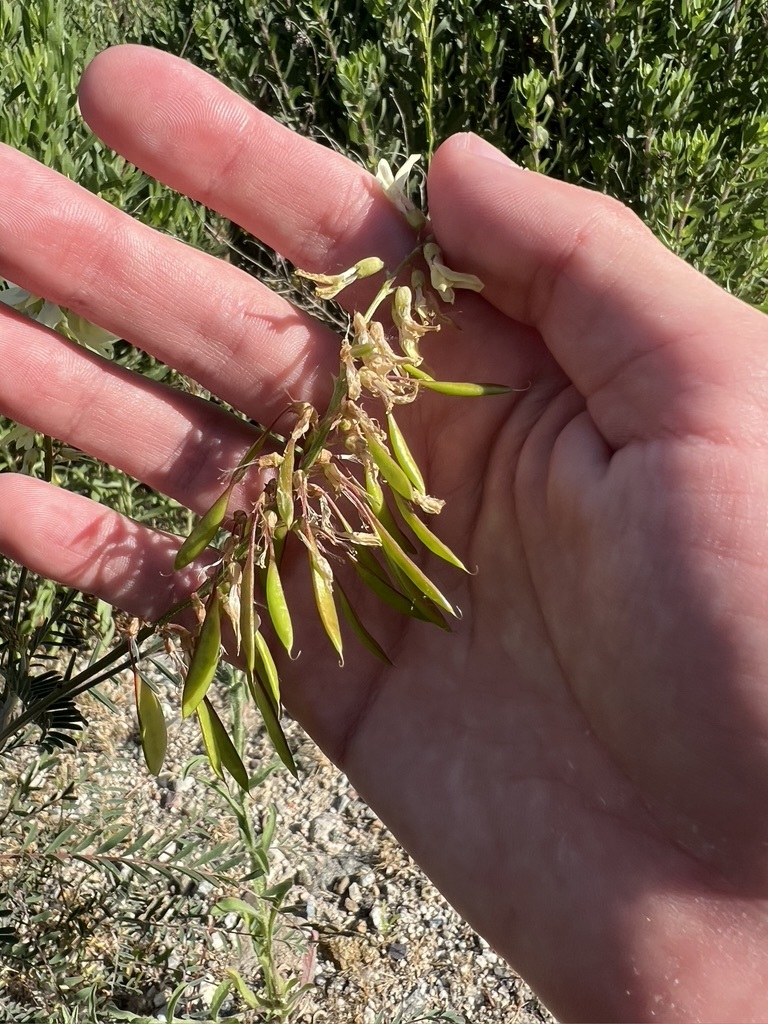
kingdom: Plantae
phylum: Tracheophyta
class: Magnoliopsida
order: Fabales
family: Fabaceae
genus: Astragalus
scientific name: Astragalus trichopodus
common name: Santa barbara milk-vetch
